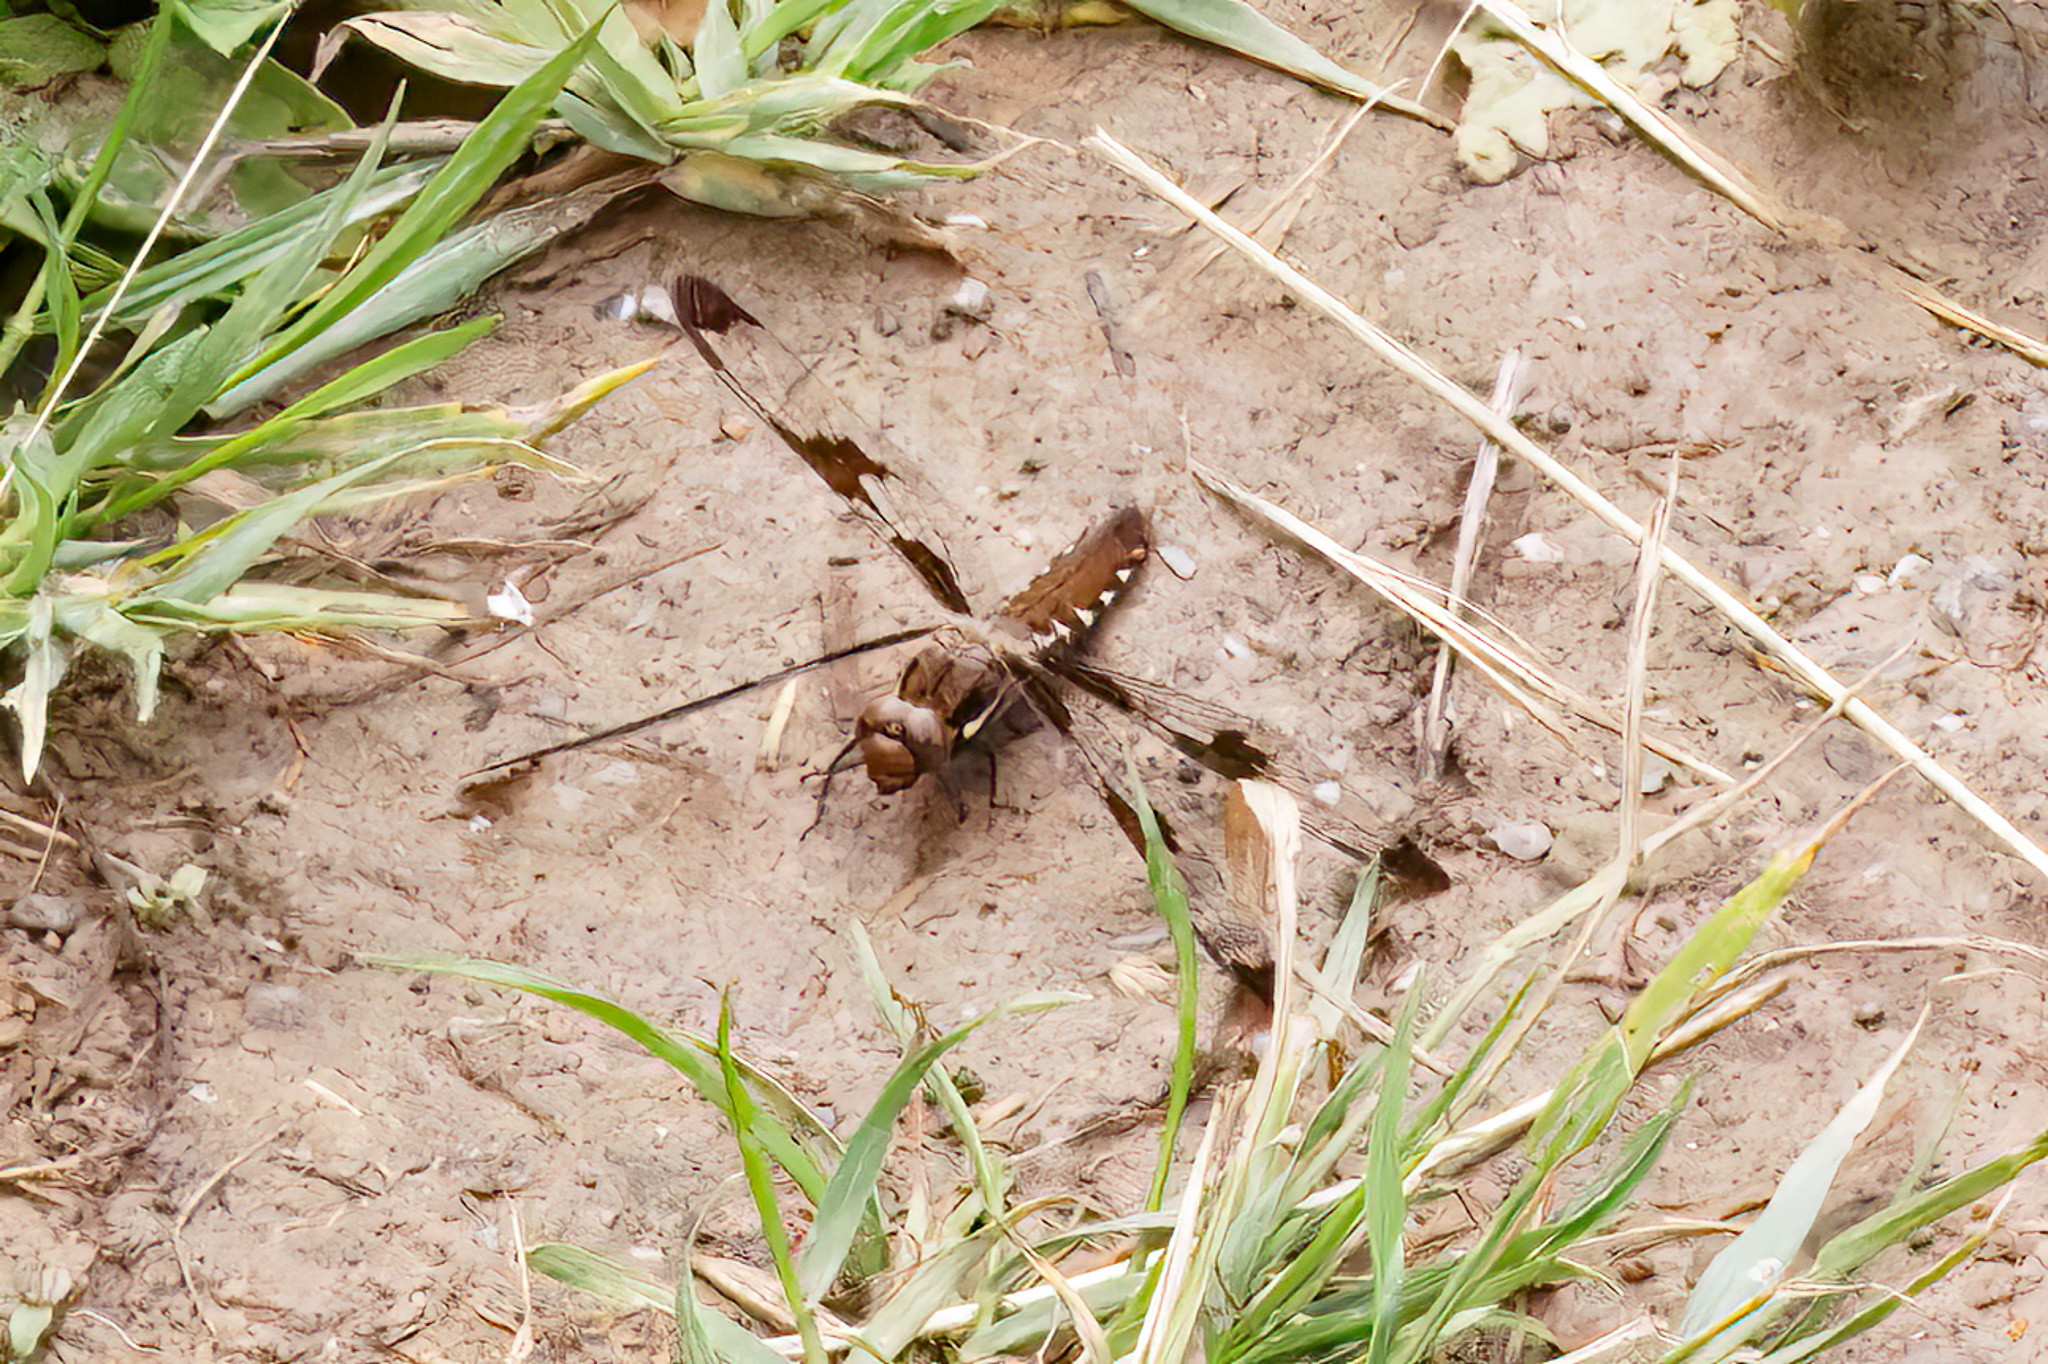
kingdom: Animalia
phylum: Arthropoda
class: Insecta
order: Odonata
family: Libellulidae
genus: Plathemis
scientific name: Plathemis lydia
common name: Common whitetail
